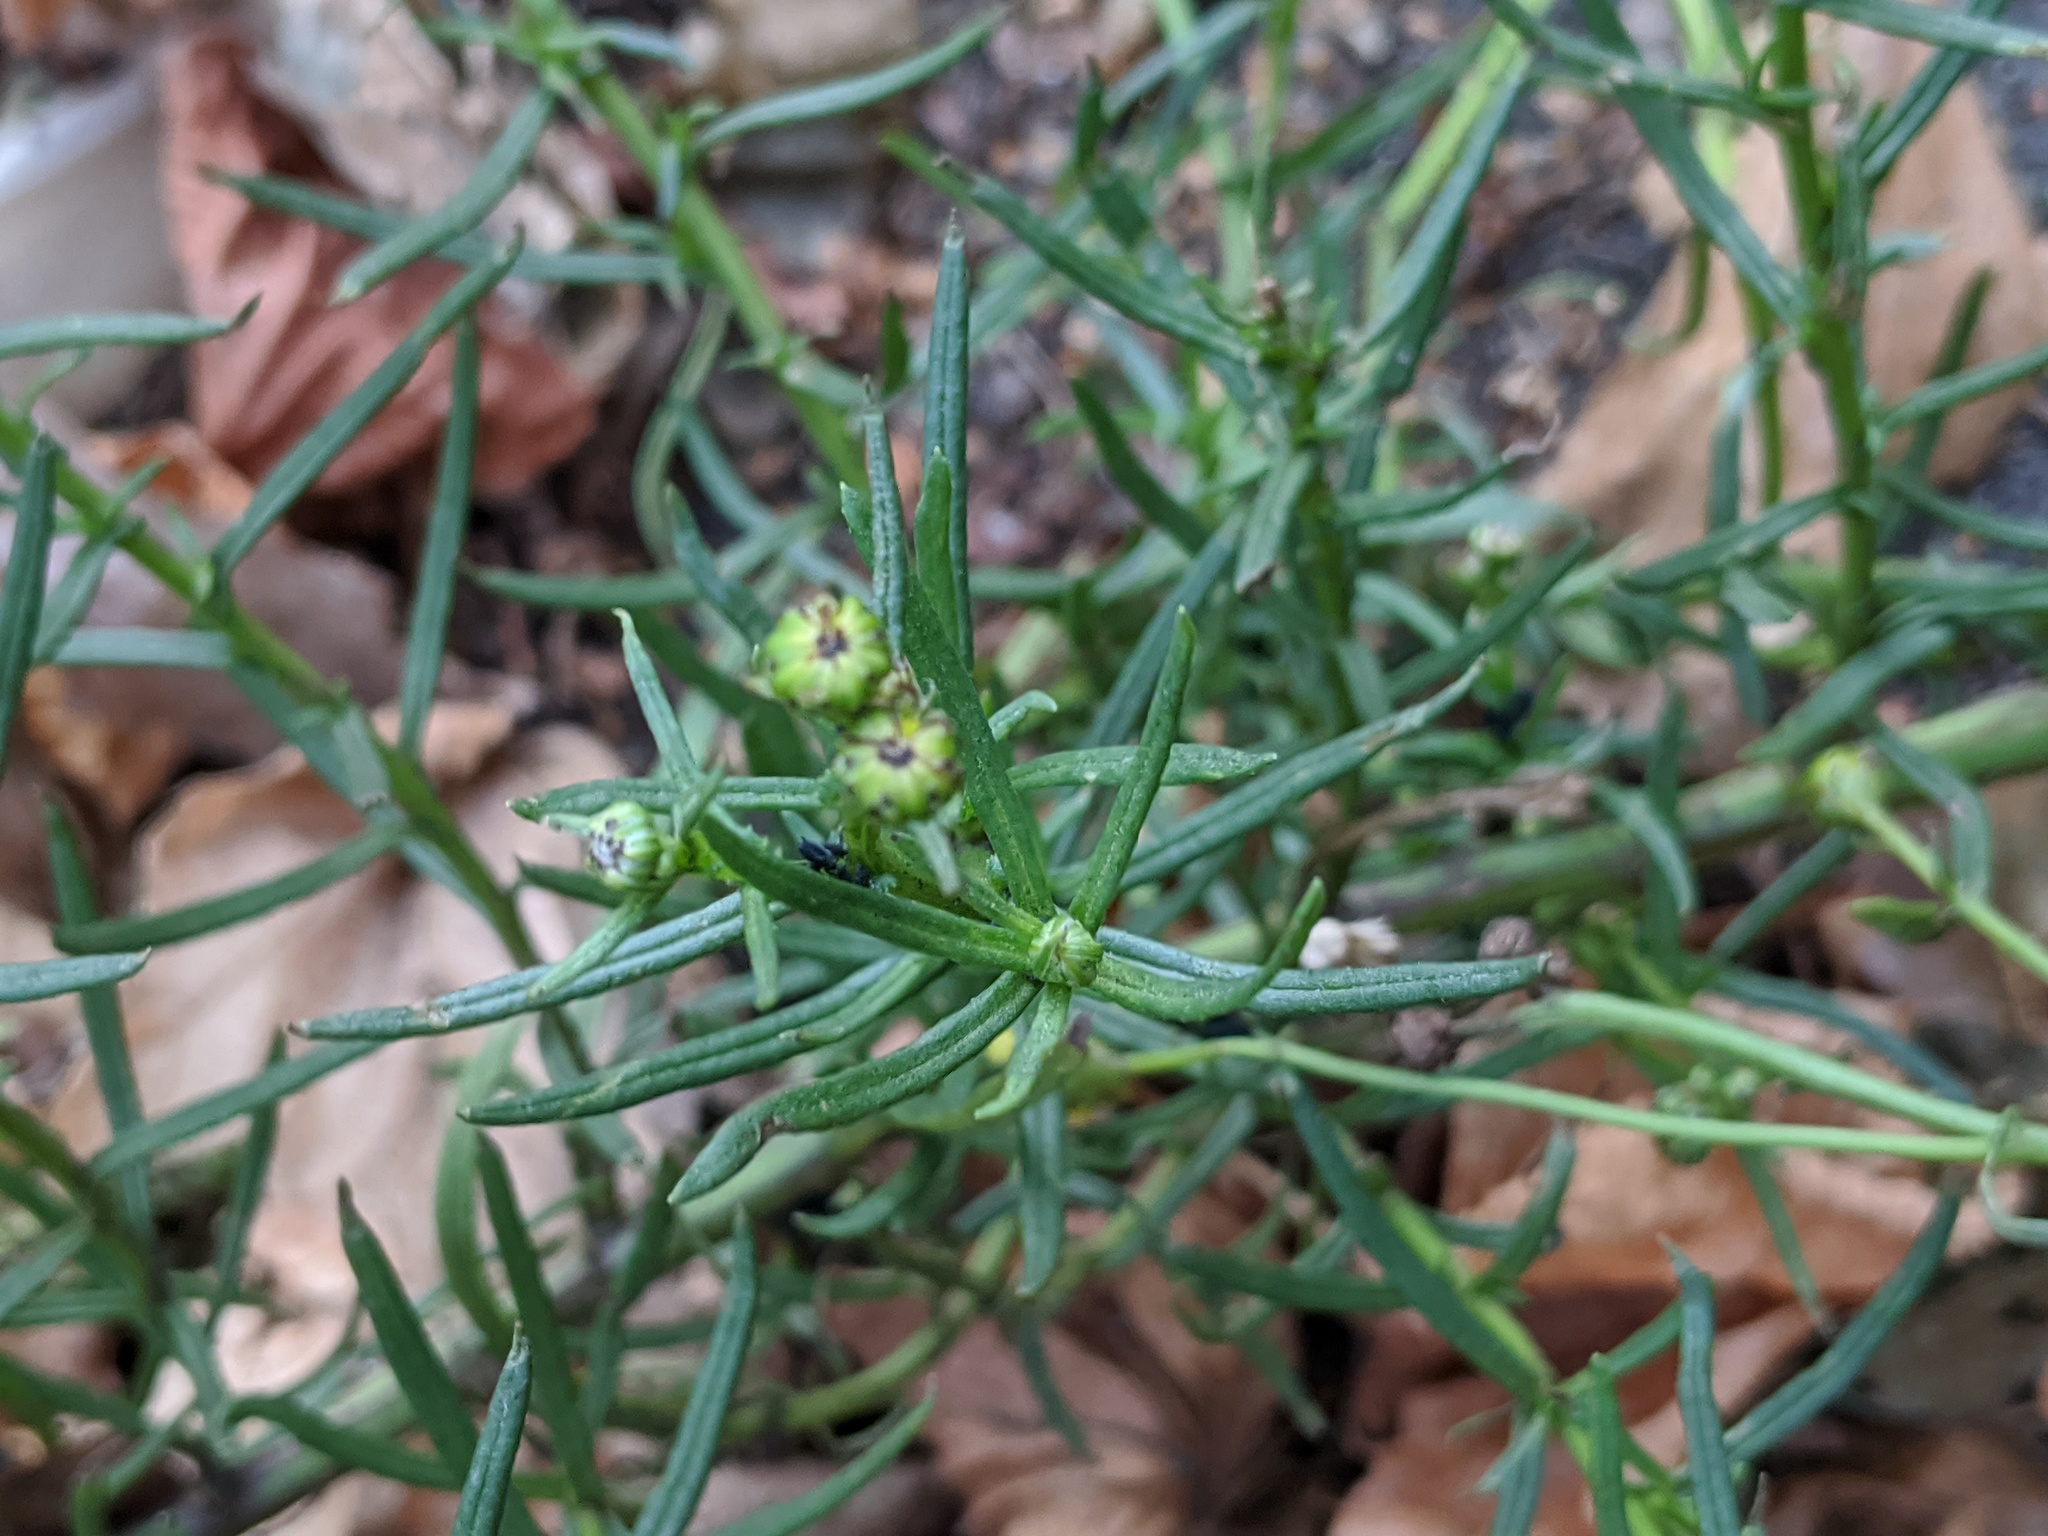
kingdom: Plantae
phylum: Tracheophyta
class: Magnoliopsida
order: Asterales
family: Asteraceae
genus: Senecio
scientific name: Senecio inaequidens
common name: Narrow-leaved ragwort
